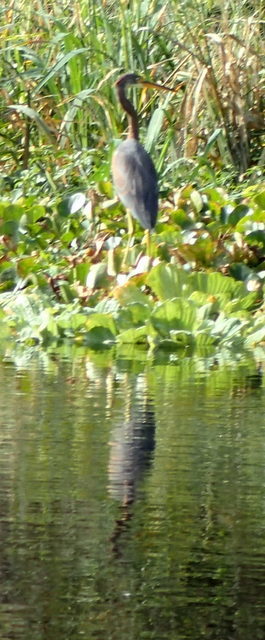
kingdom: Animalia
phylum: Chordata
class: Aves
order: Pelecaniformes
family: Ardeidae
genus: Egretta
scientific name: Egretta tricolor
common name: Tricolored heron
